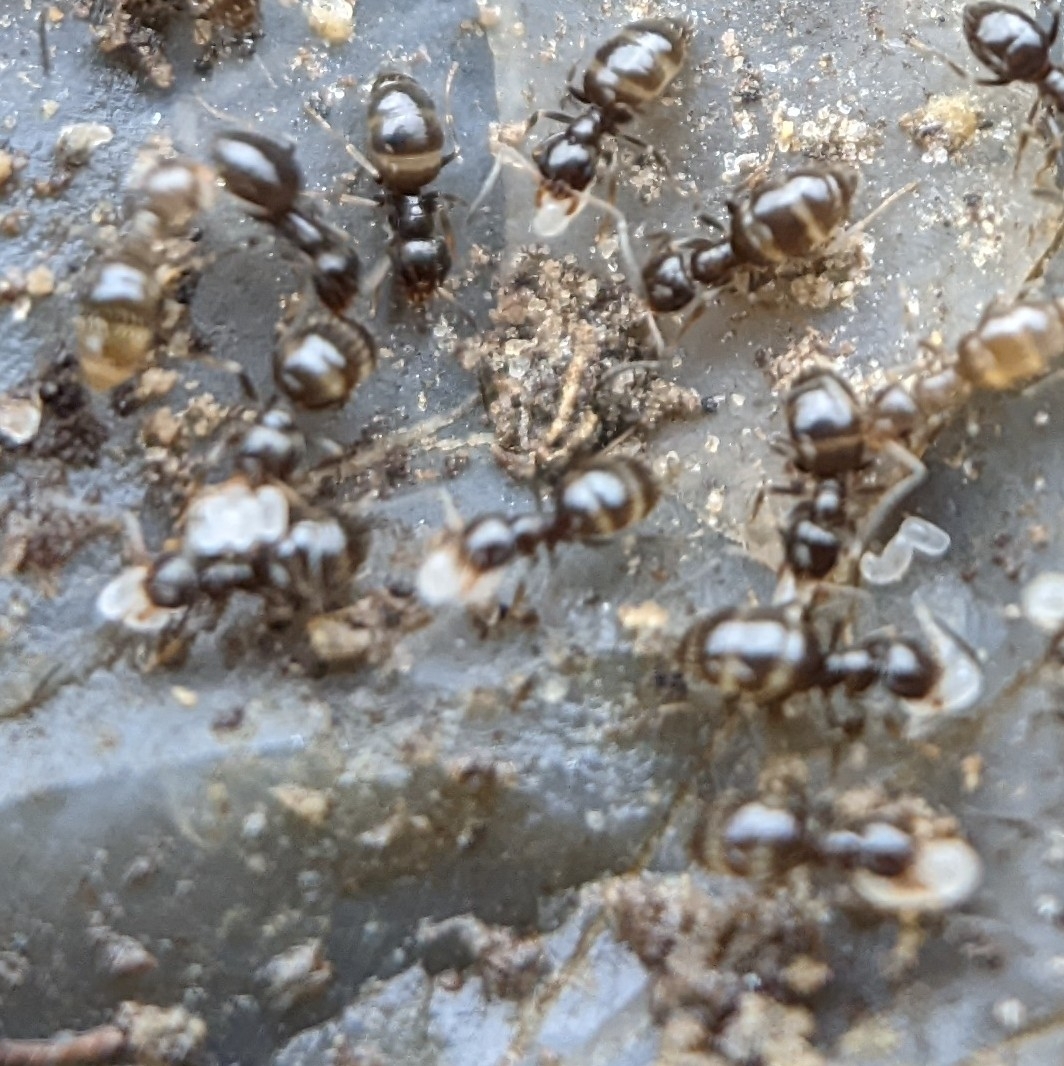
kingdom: Animalia
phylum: Arthropoda
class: Insecta
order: Hymenoptera
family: Formicidae
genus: Brachymyrmex
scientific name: Brachymyrmex patagonicus
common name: Dark rover ant
